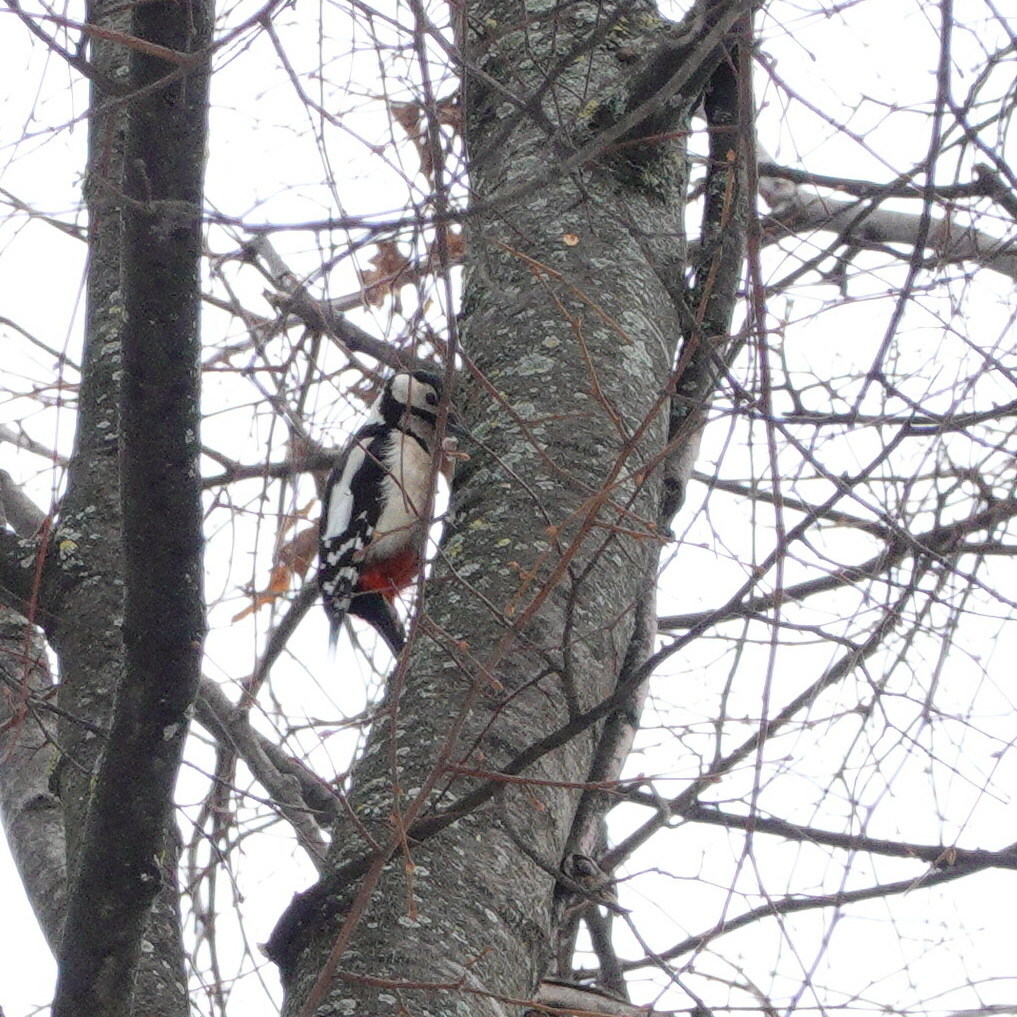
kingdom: Animalia
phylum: Chordata
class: Aves
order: Piciformes
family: Picidae
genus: Dendrocopos
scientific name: Dendrocopos major
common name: Great spotted woodpecker
